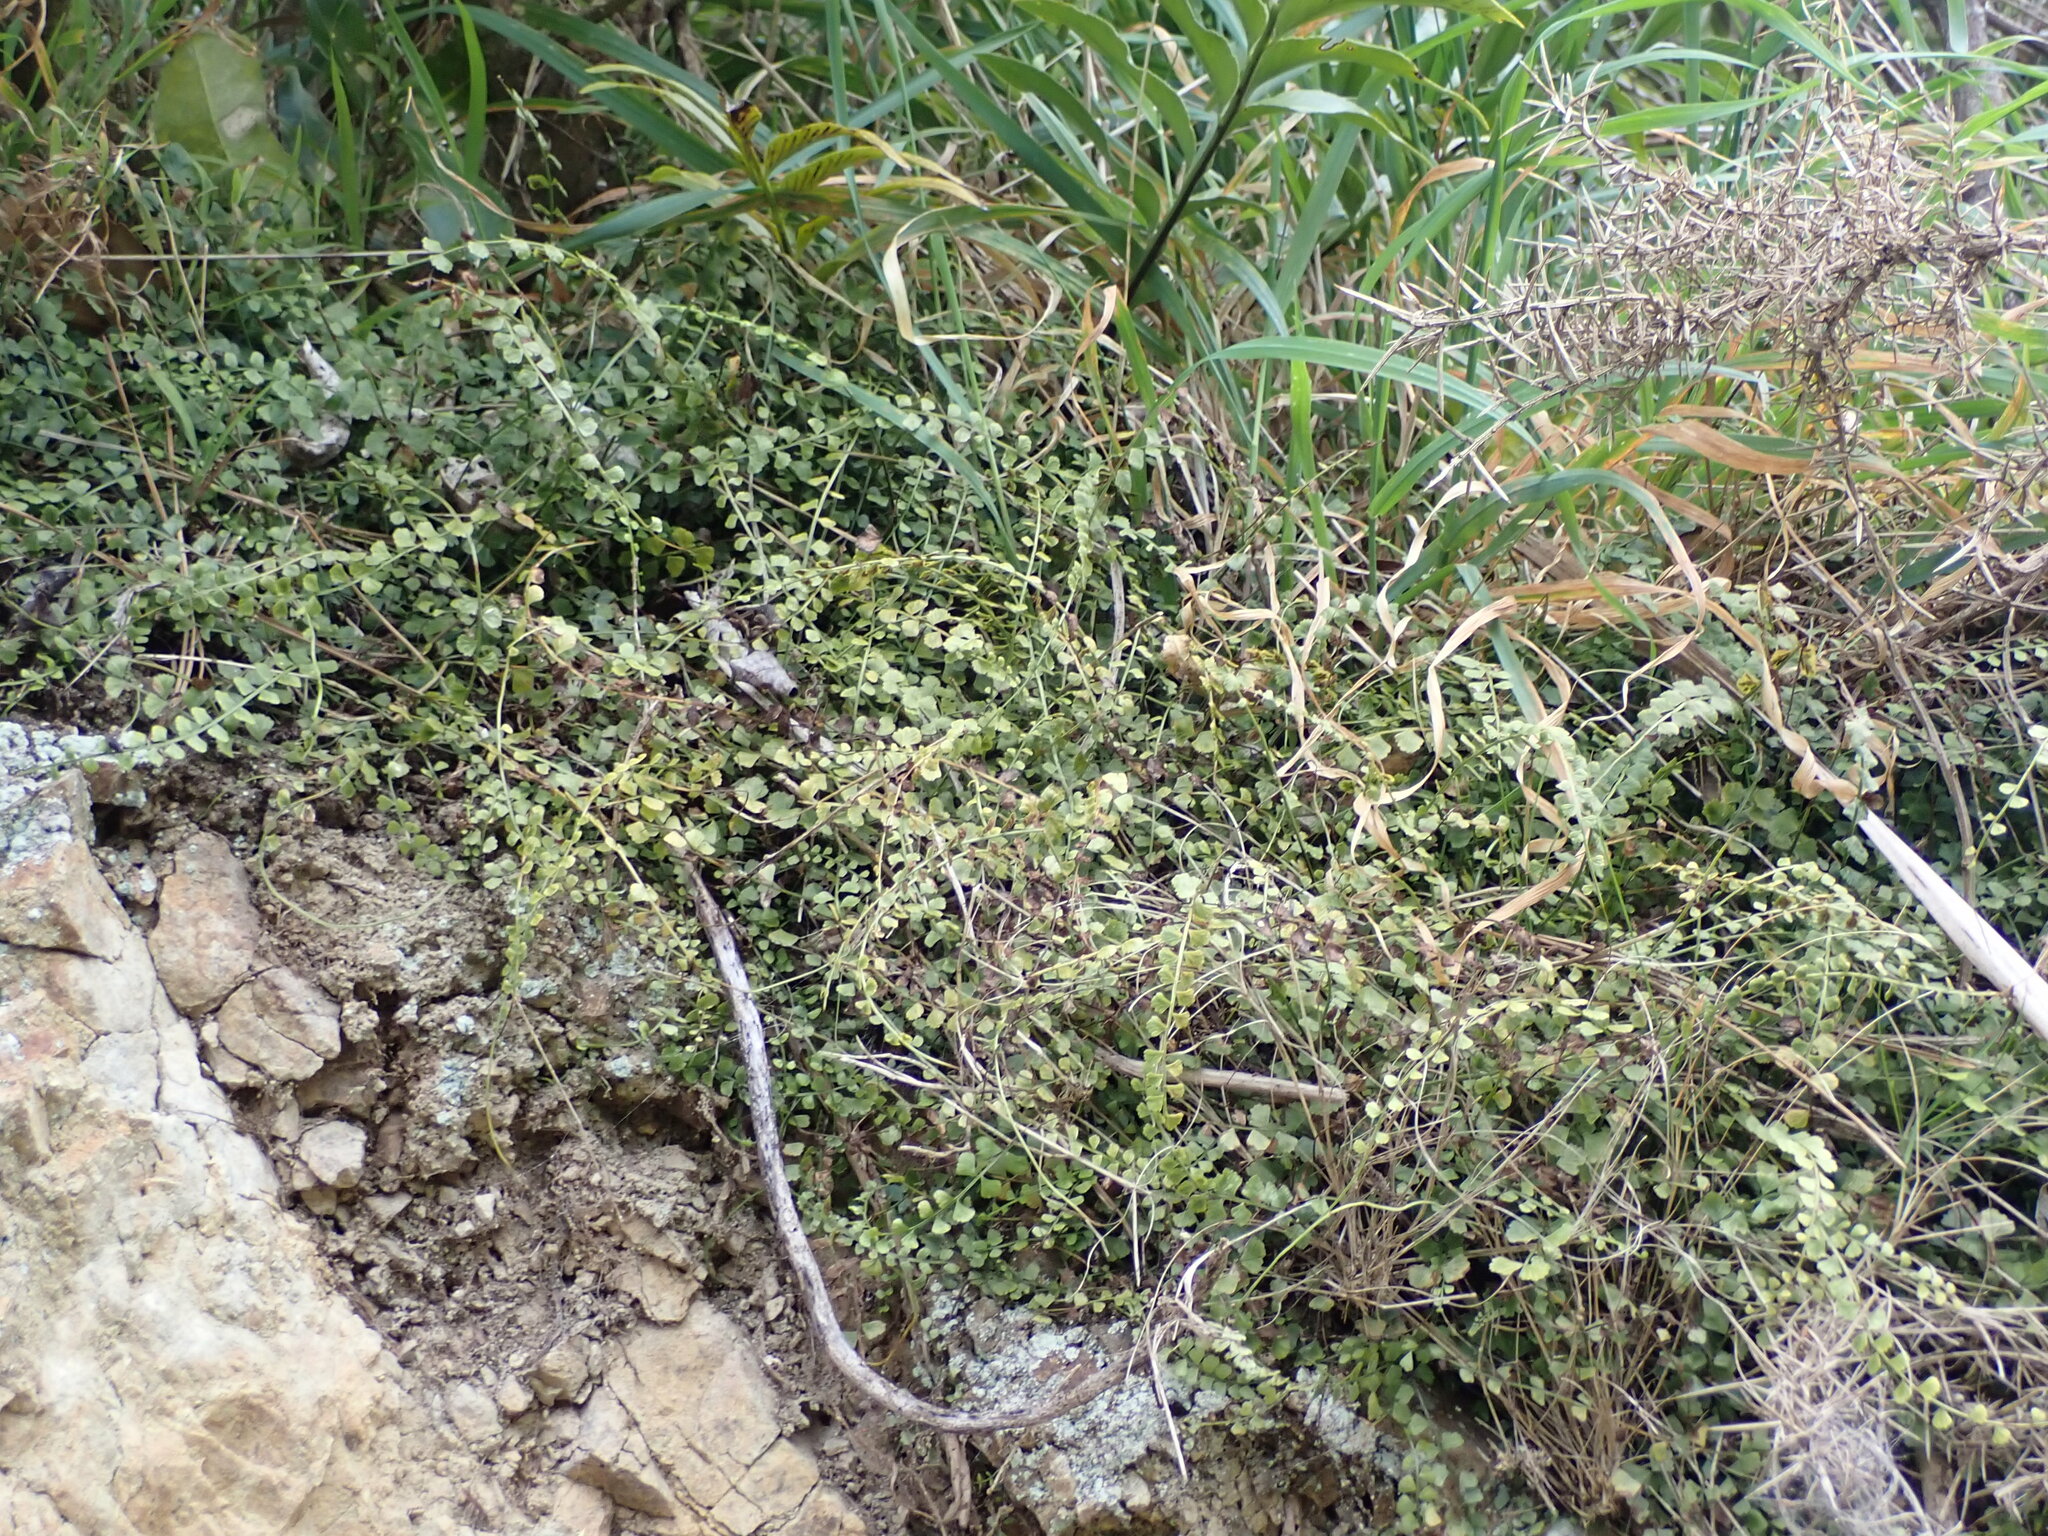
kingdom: Plantae
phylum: Tracheophyta
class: Polypodiopsida
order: Polypodiales
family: Aspleniaceae
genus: Asplenium
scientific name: Asplenium flabellifolium
